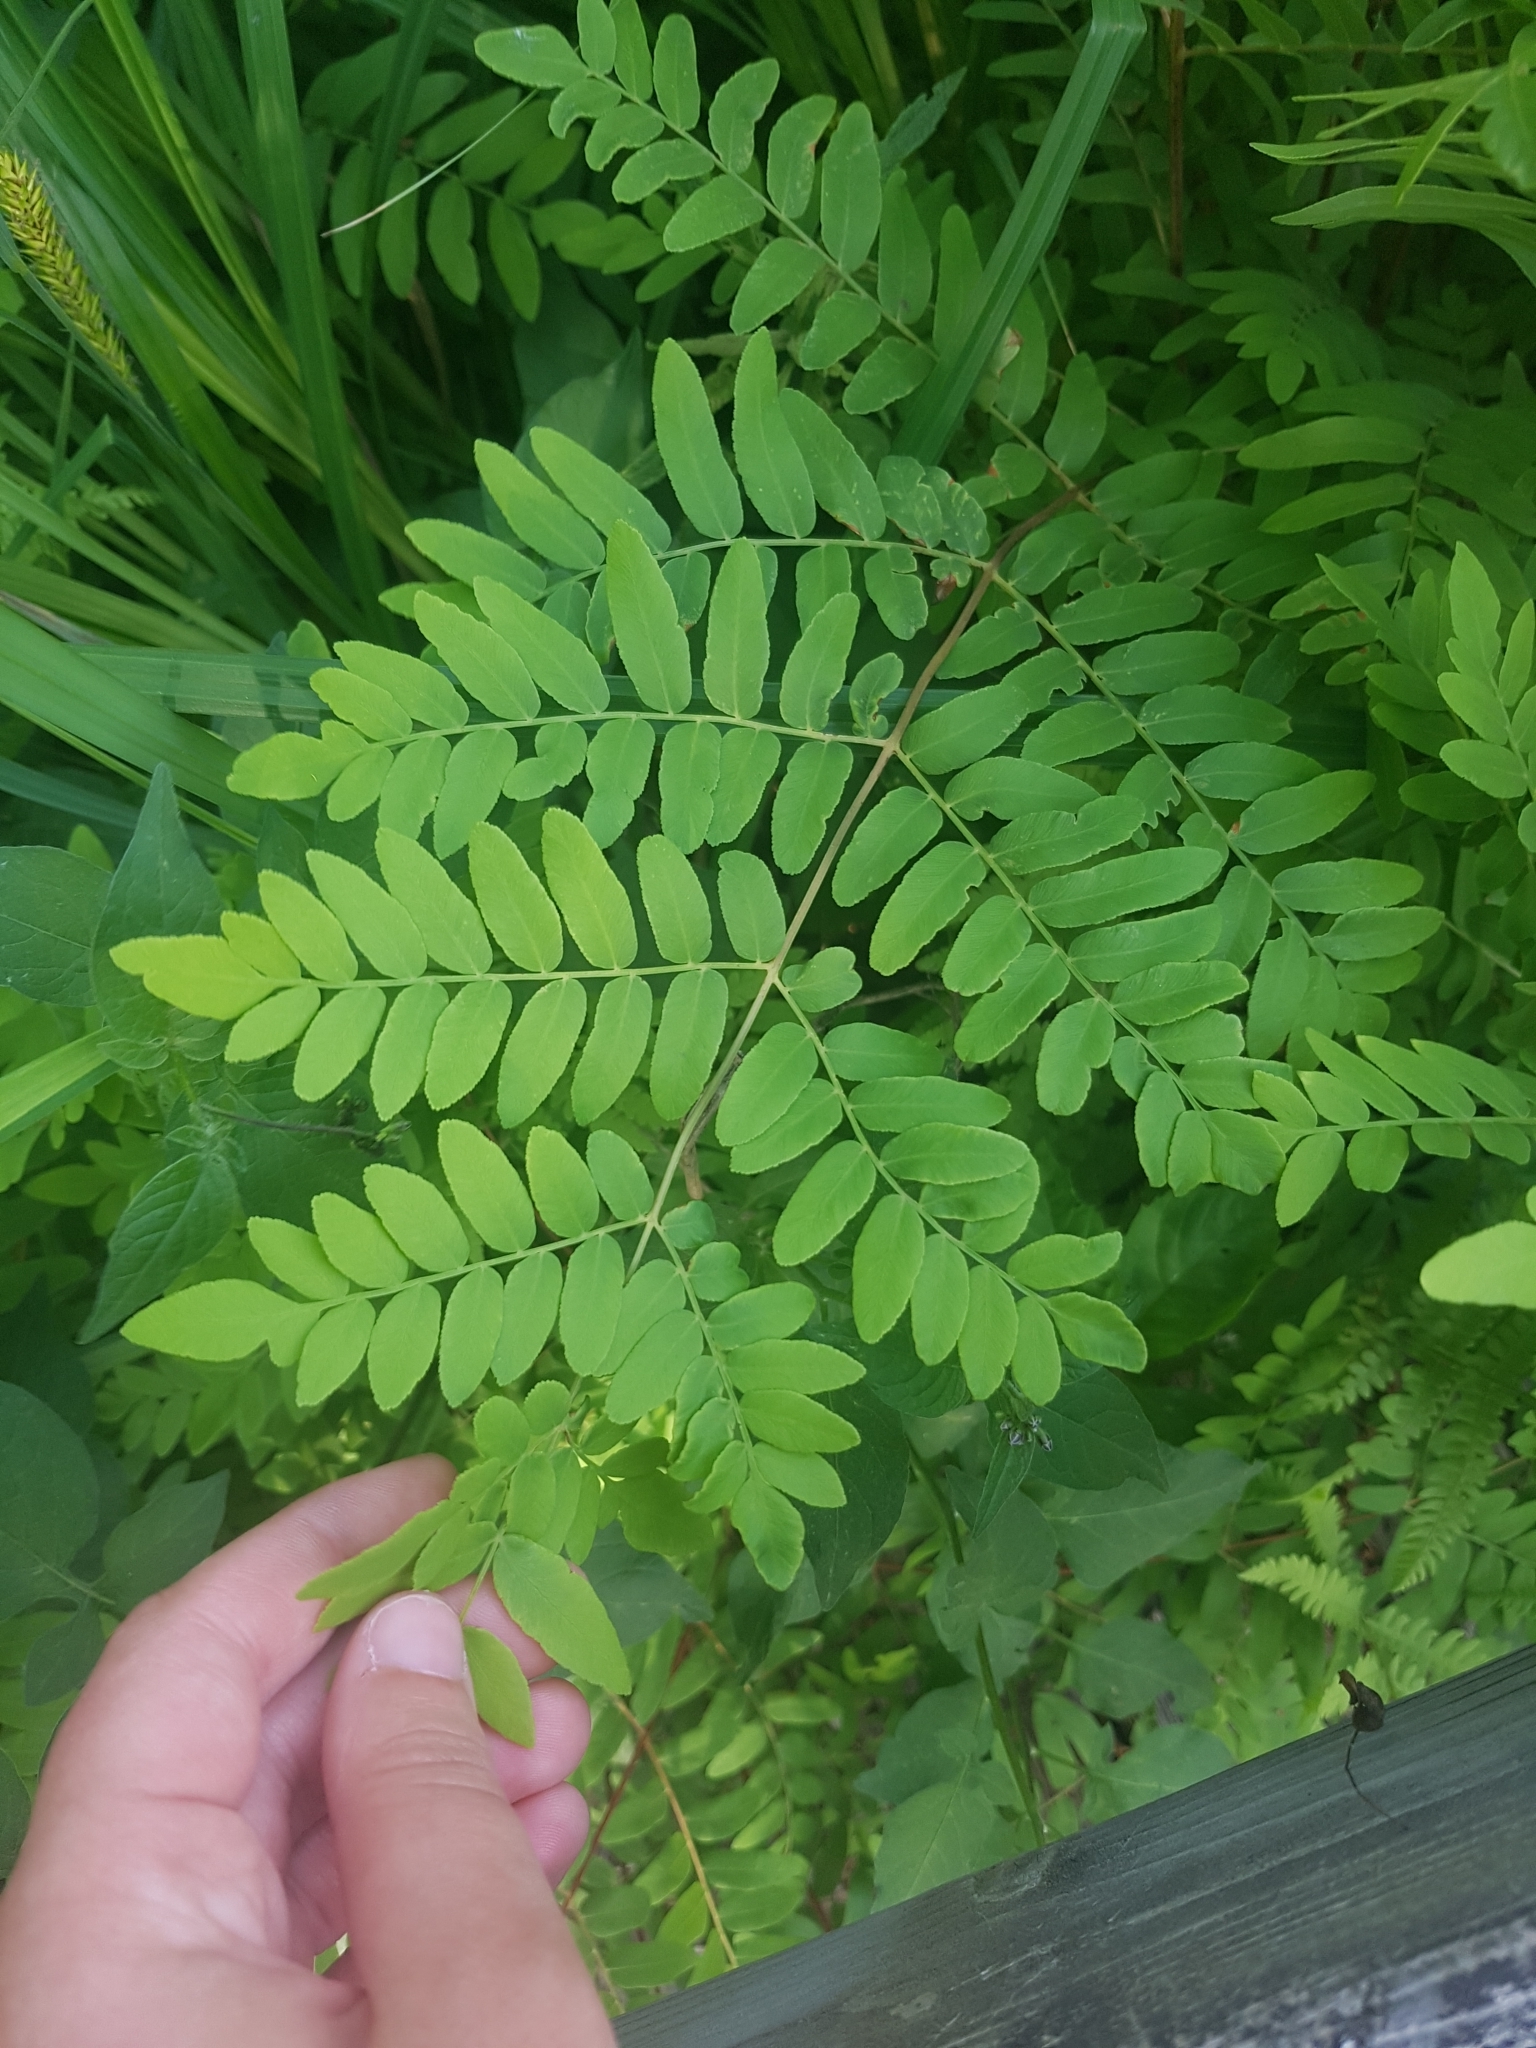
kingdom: Plantae
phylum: Tracheophyta
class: Polypodiopsida
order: Osmundales
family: Osmundaceae
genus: Osmunda
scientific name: Osmunda spectabilis
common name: American royal fern
